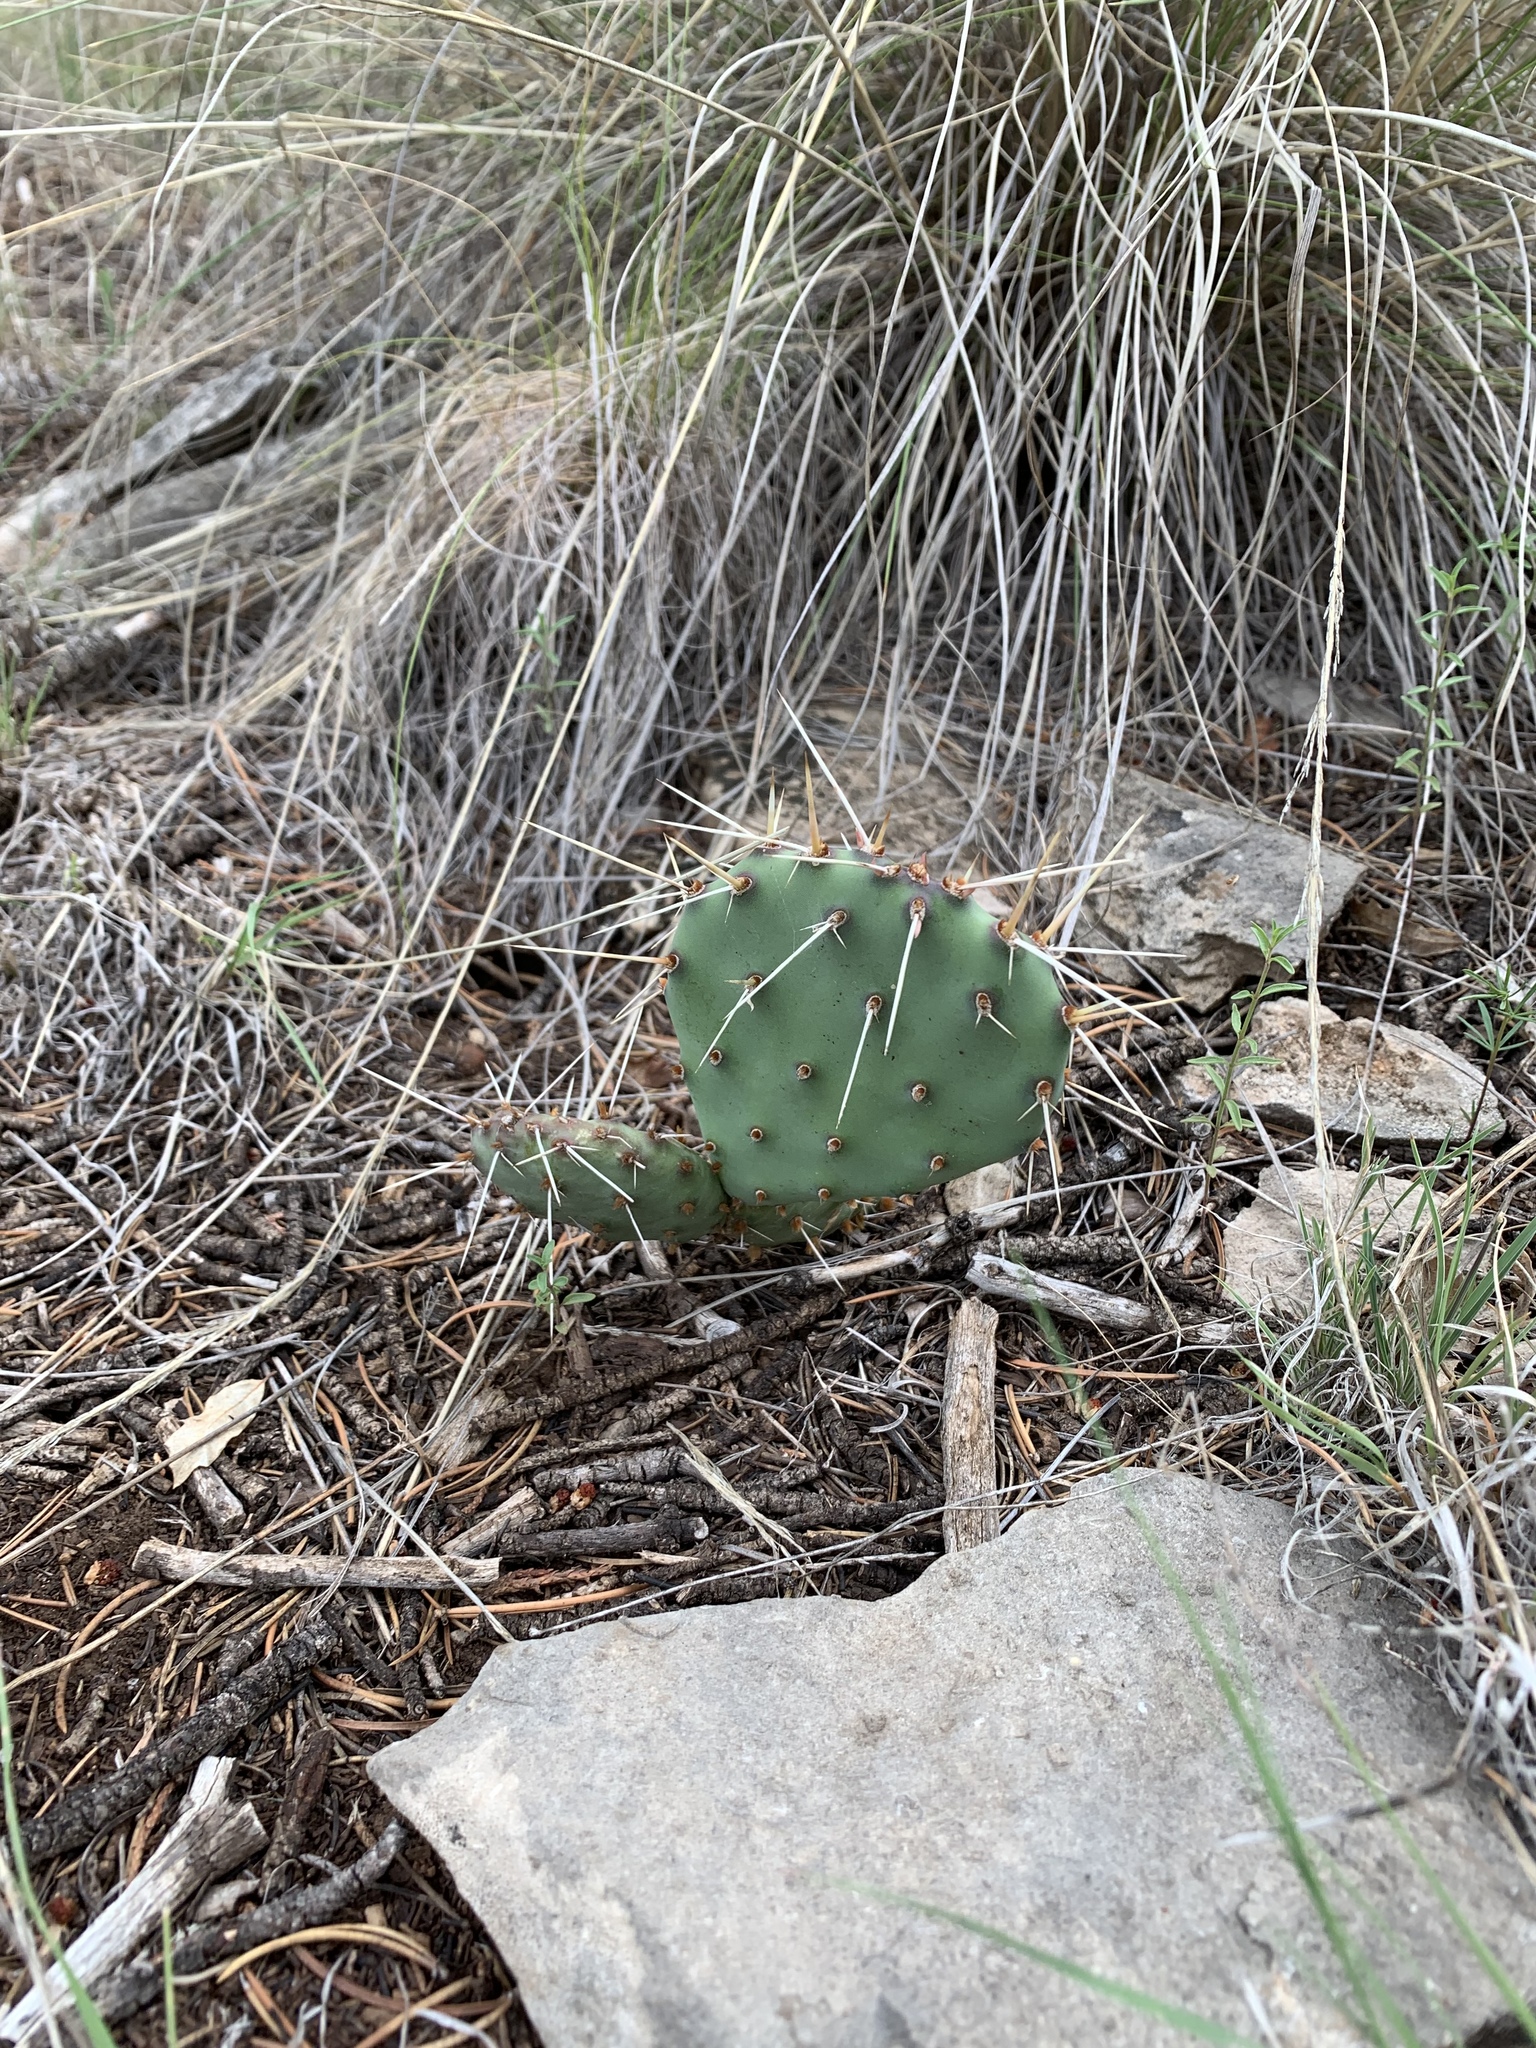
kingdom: Plantae
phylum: Tracheophyta
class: Magnoliopsida
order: Caryophyllales
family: Cactaceae
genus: Opuntia
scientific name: Opuntia pottsii
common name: Potts's prickly-pear
